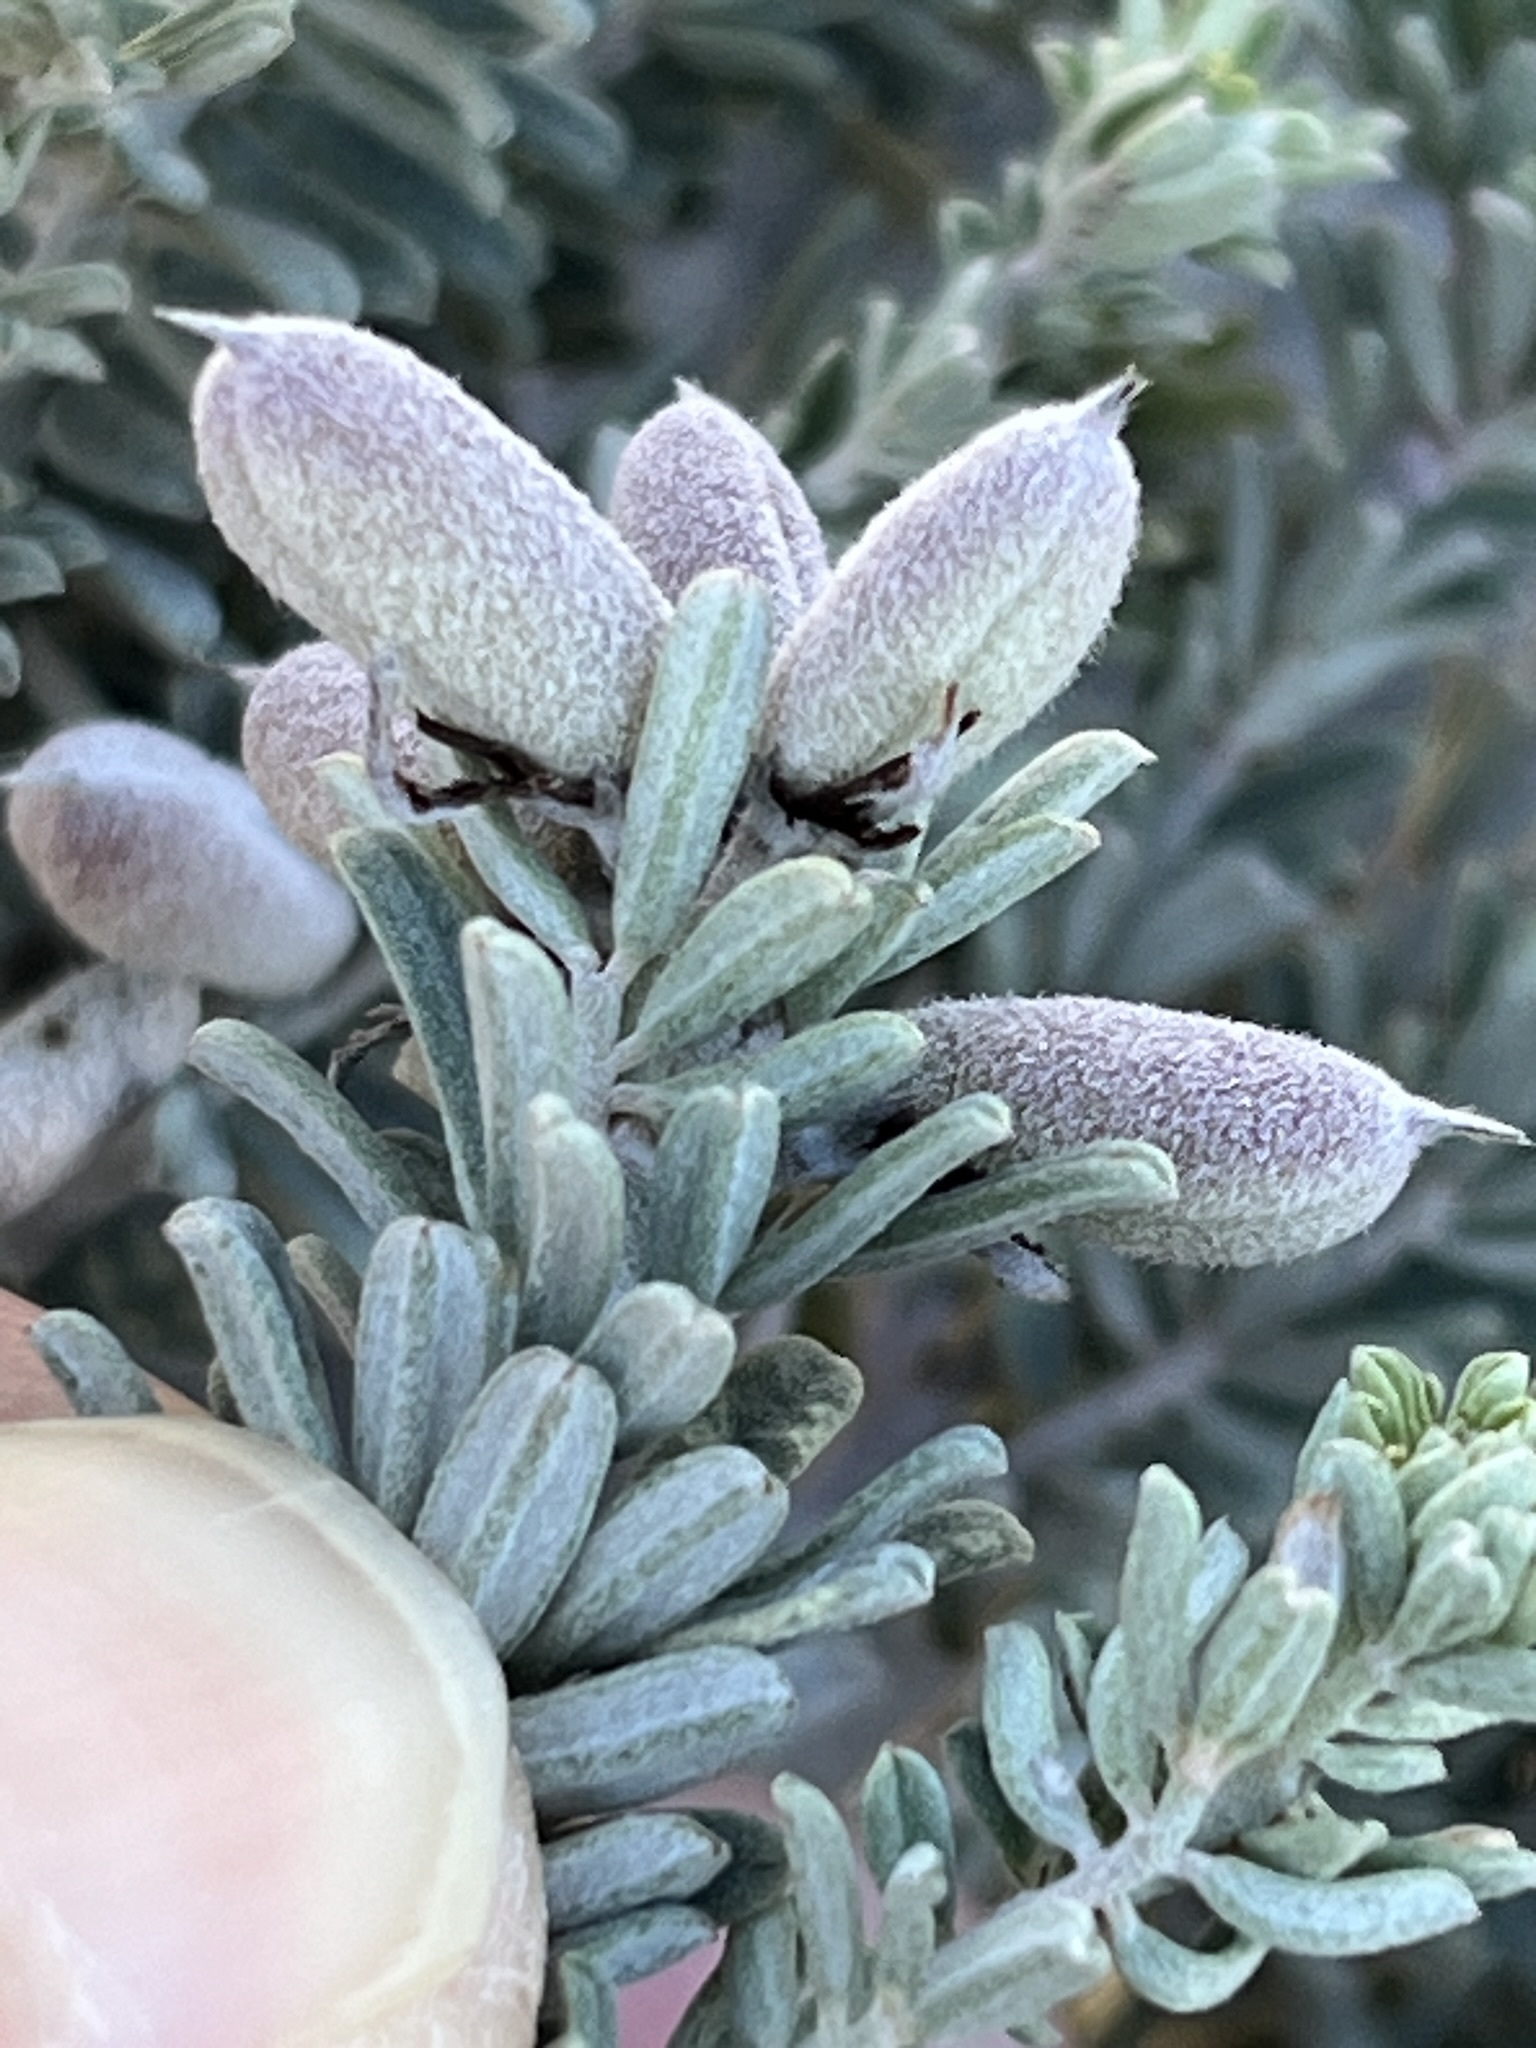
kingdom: Plantae
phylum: Tracheophyta
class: Magnoliopsida
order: Fabales
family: Fabaceae
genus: Indigofera
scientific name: Indigofera brachystachya
